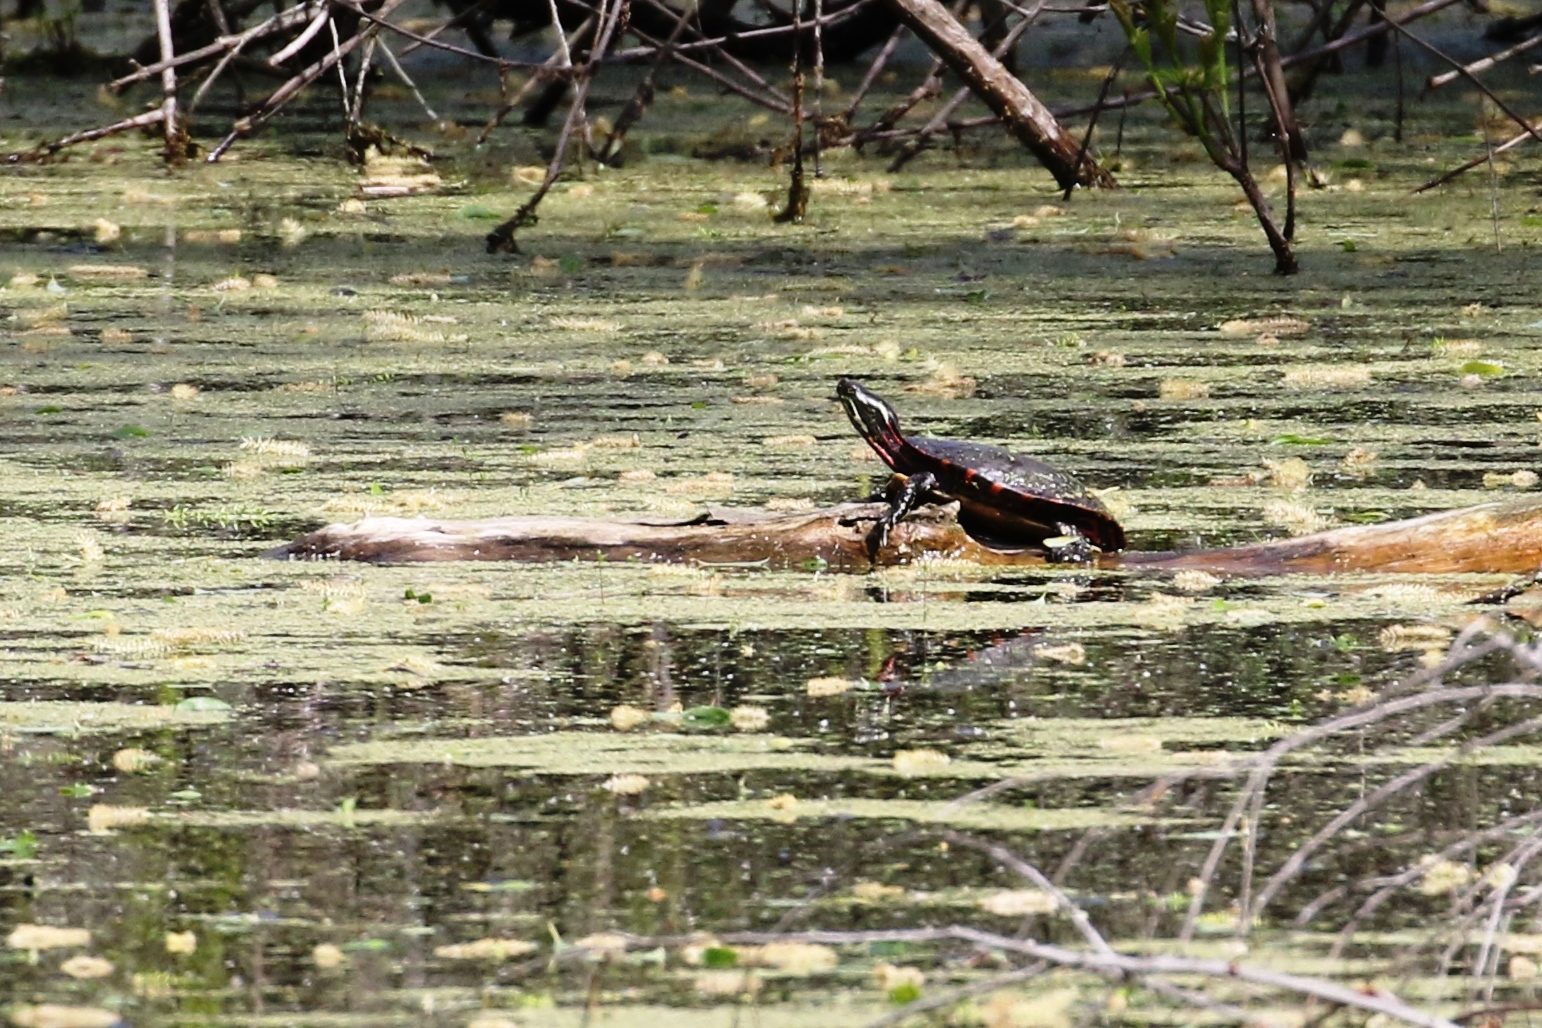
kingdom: Animalia
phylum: Chordata
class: Testudines
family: Emydidae
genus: Chrysemys
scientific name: Chrysemys picta
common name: Painted turtle
